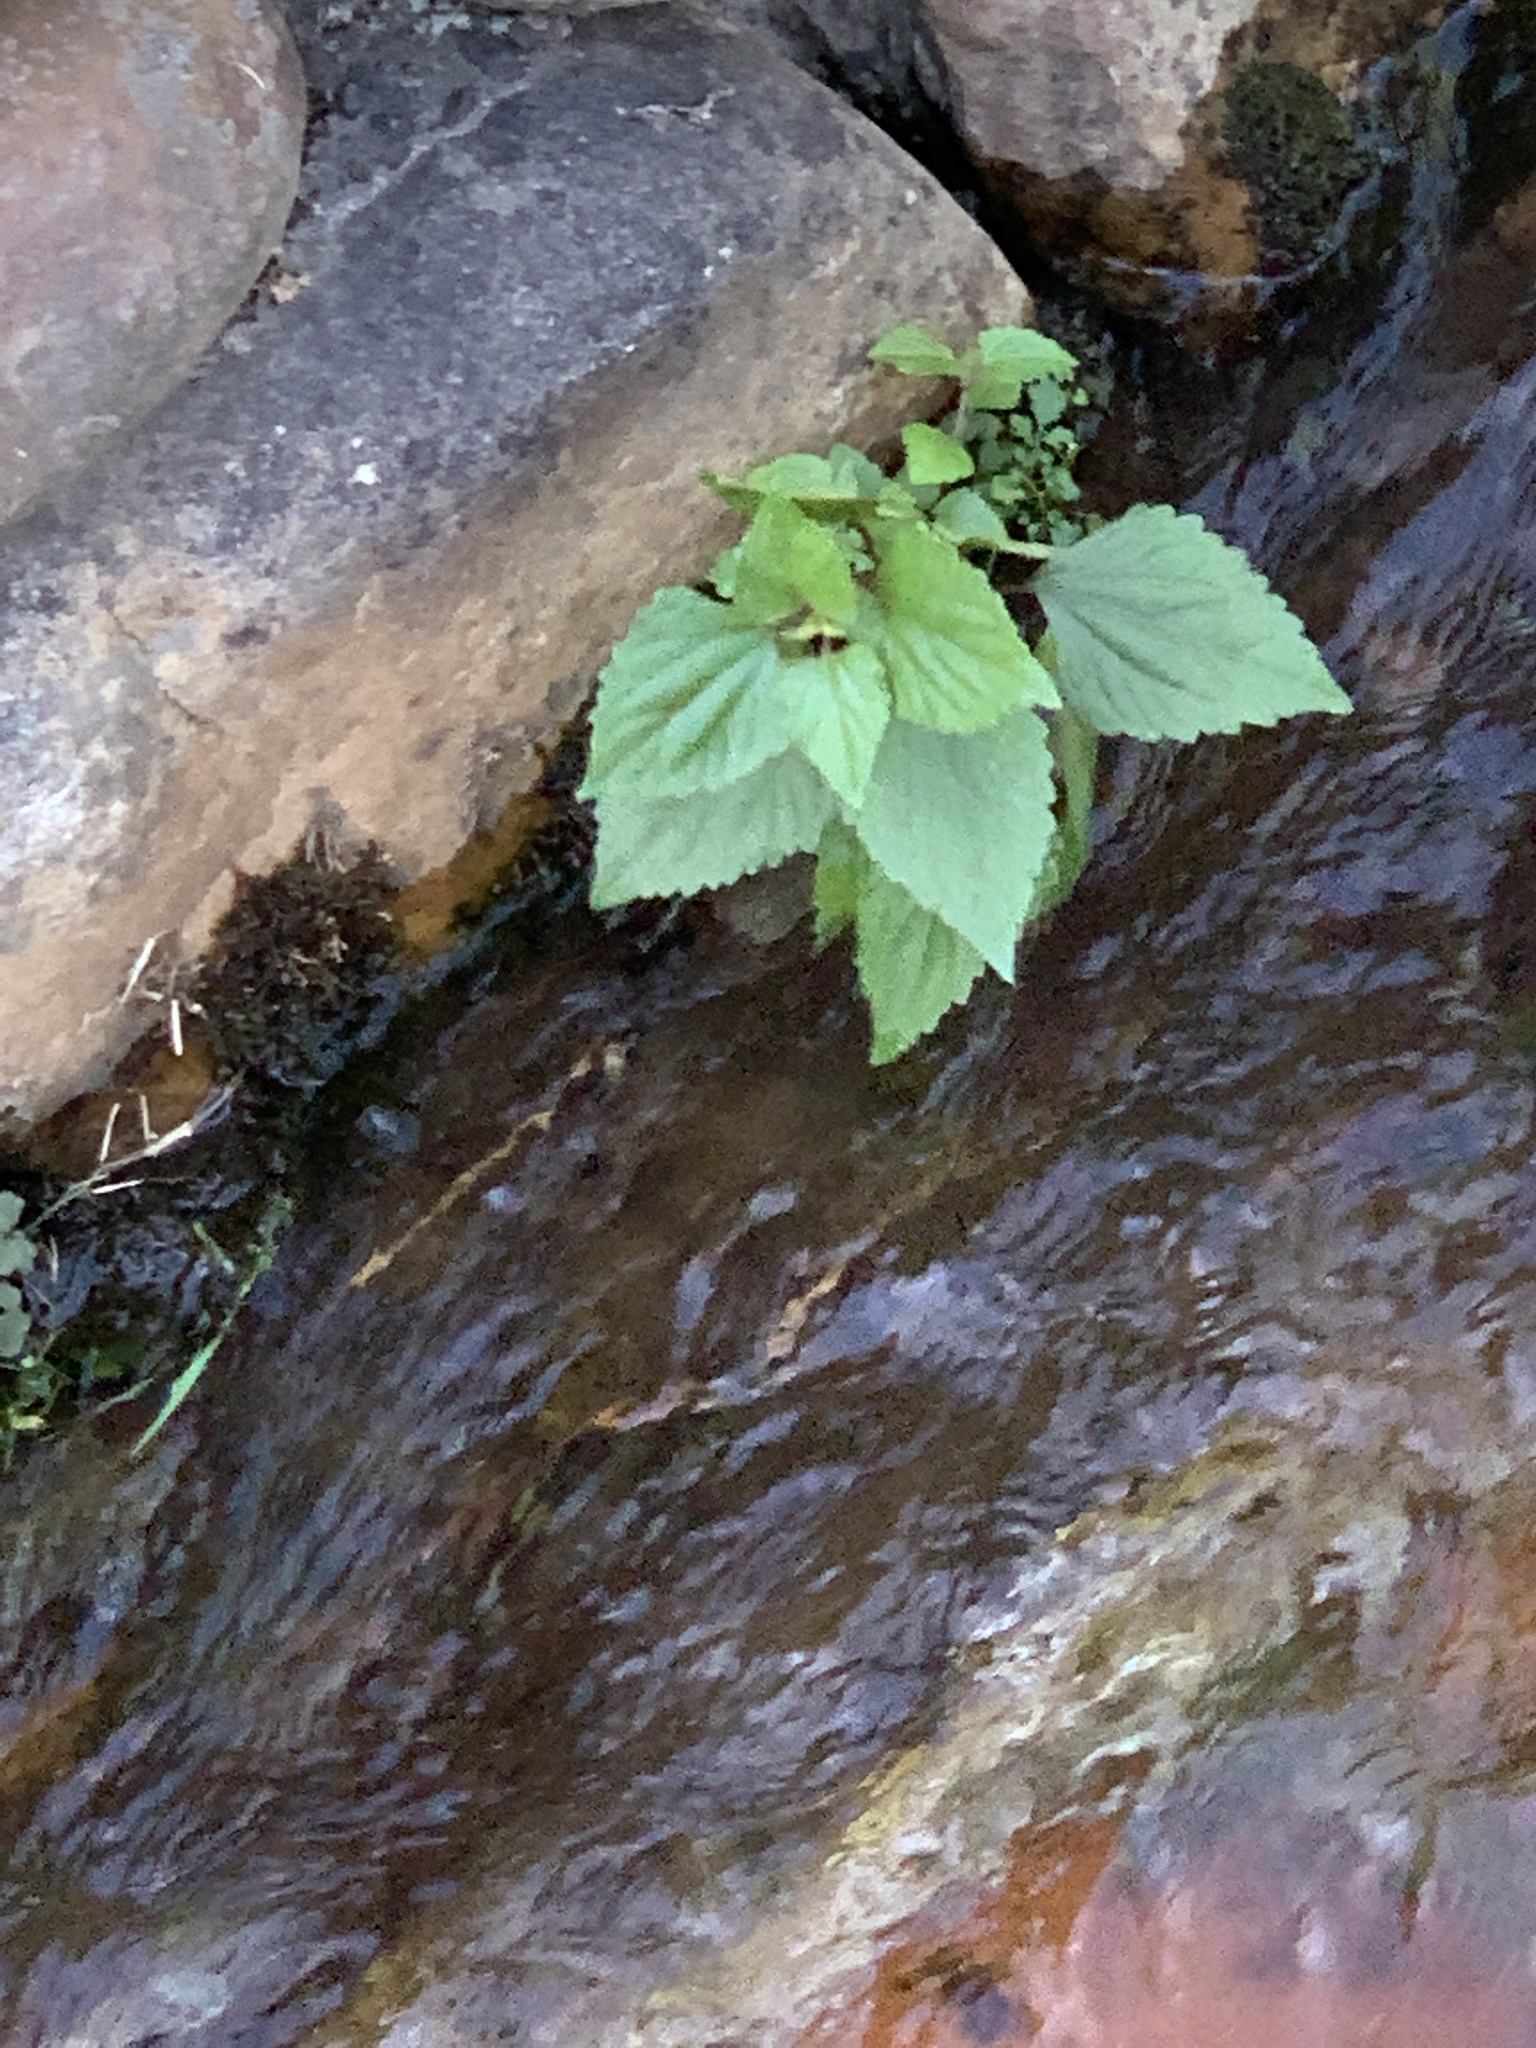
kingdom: Plantae
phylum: Tracheophyta
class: Magnoliopsida
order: Asterales
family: Asteraceae
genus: Ageratina
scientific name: Ageratina adenophora
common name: Sticky snakeroot
